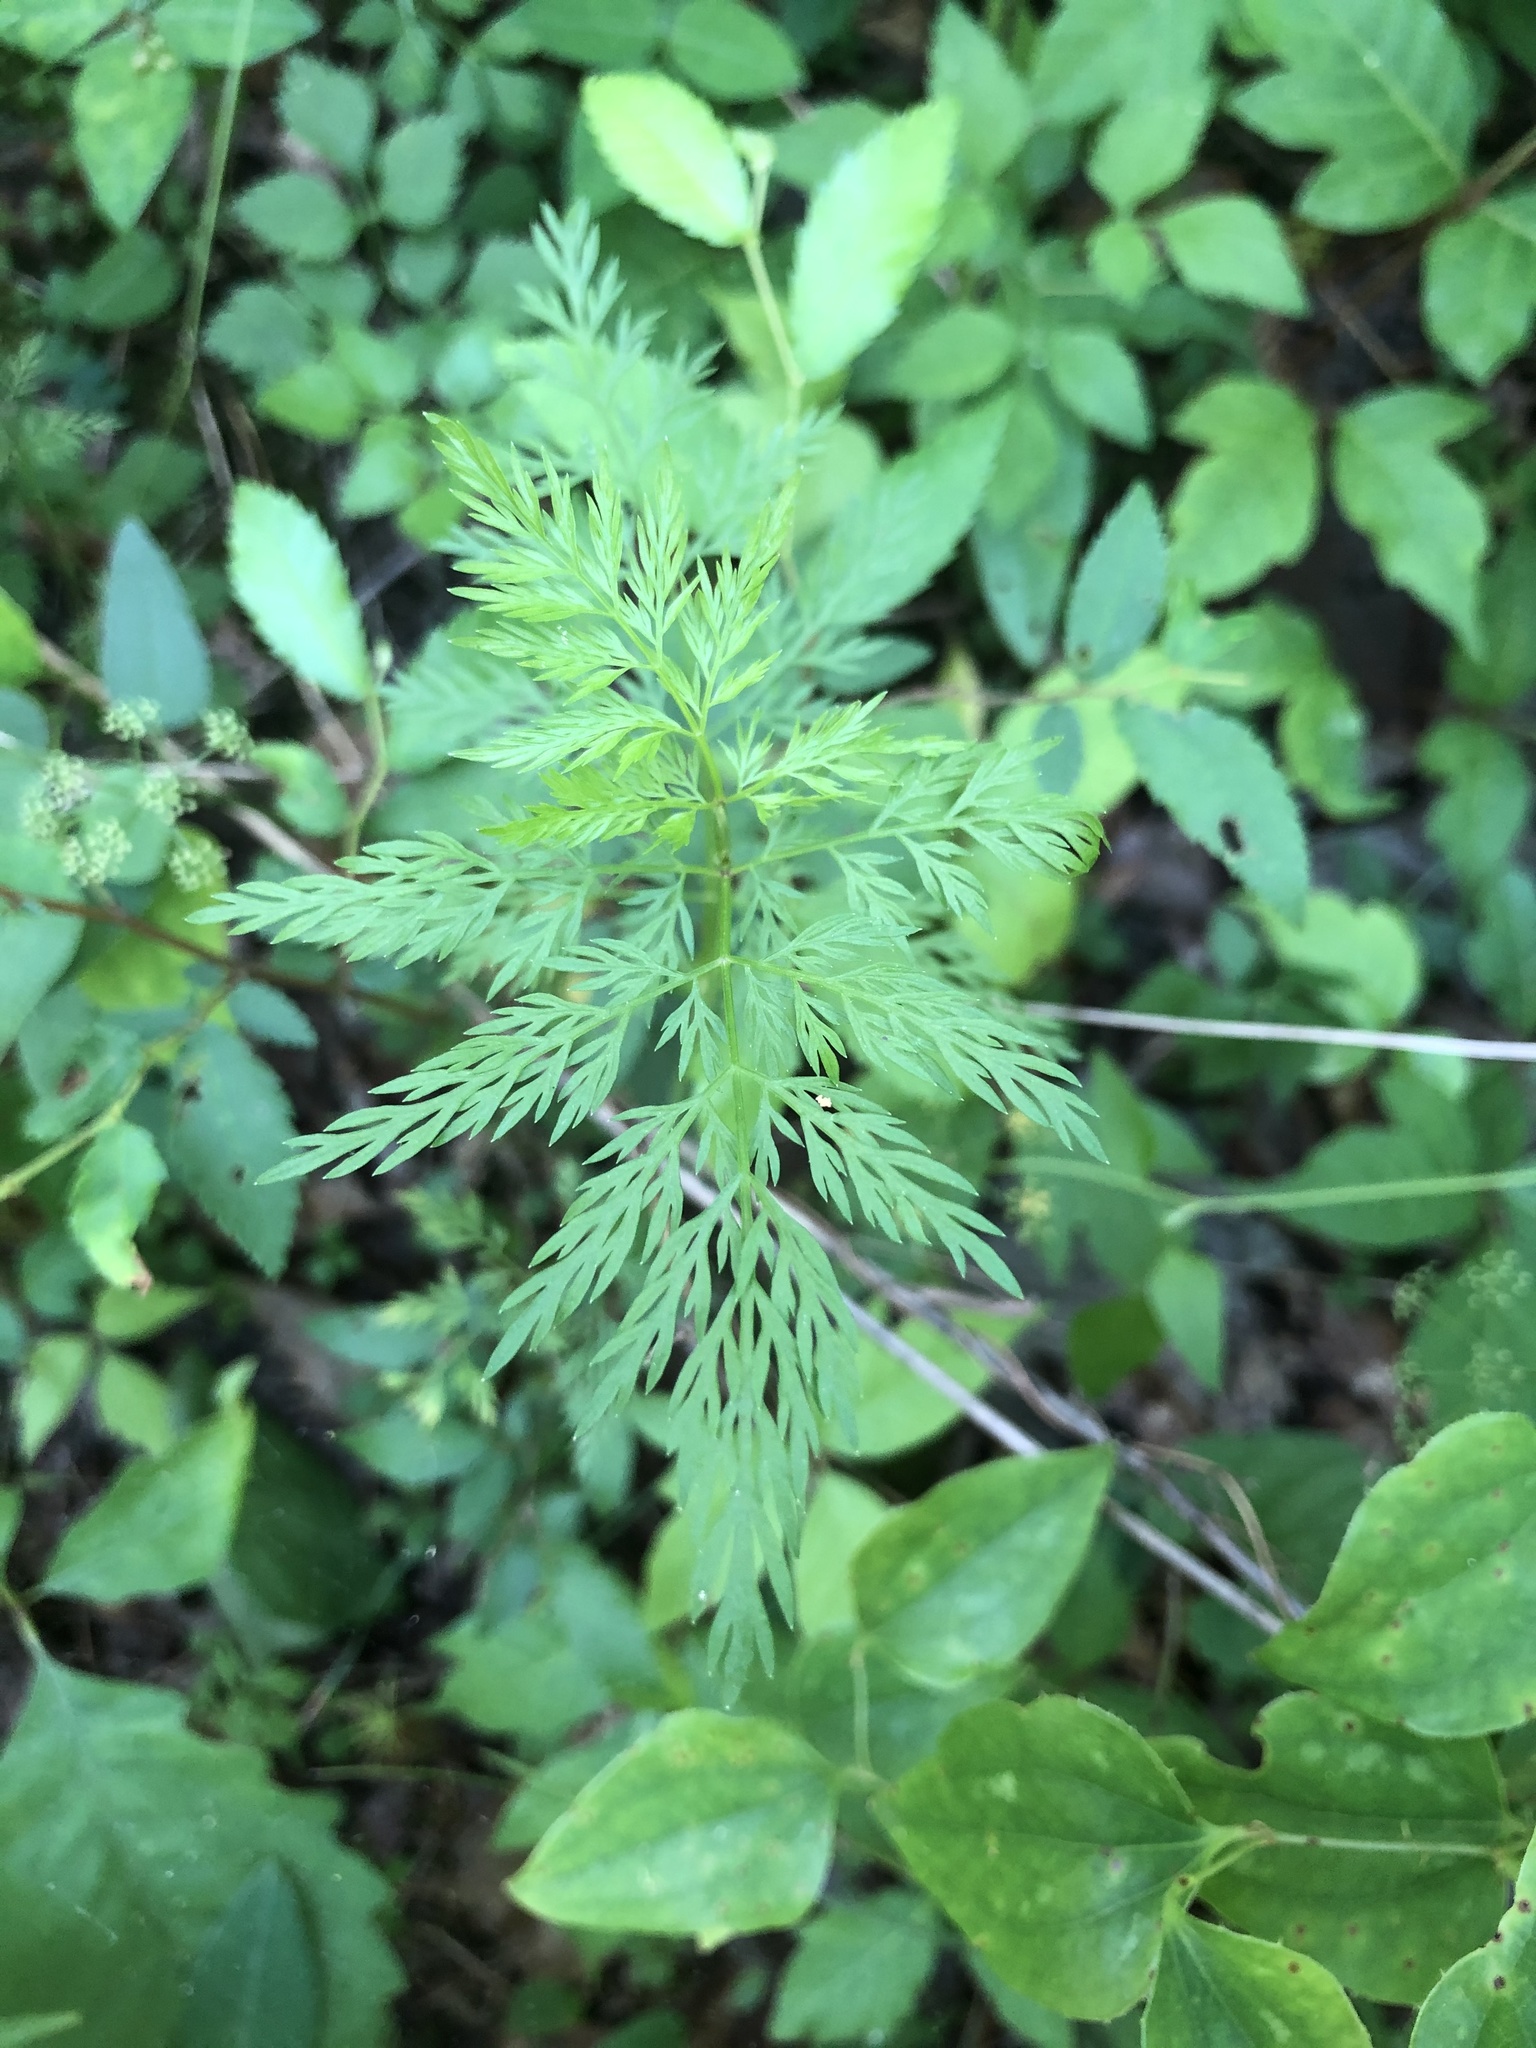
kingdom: Plantae
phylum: Tracheophyta
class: Magnoliopsida
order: Apiales
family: Apiaceae
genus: Trepocarpus
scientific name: Trepocarpus aethusae
